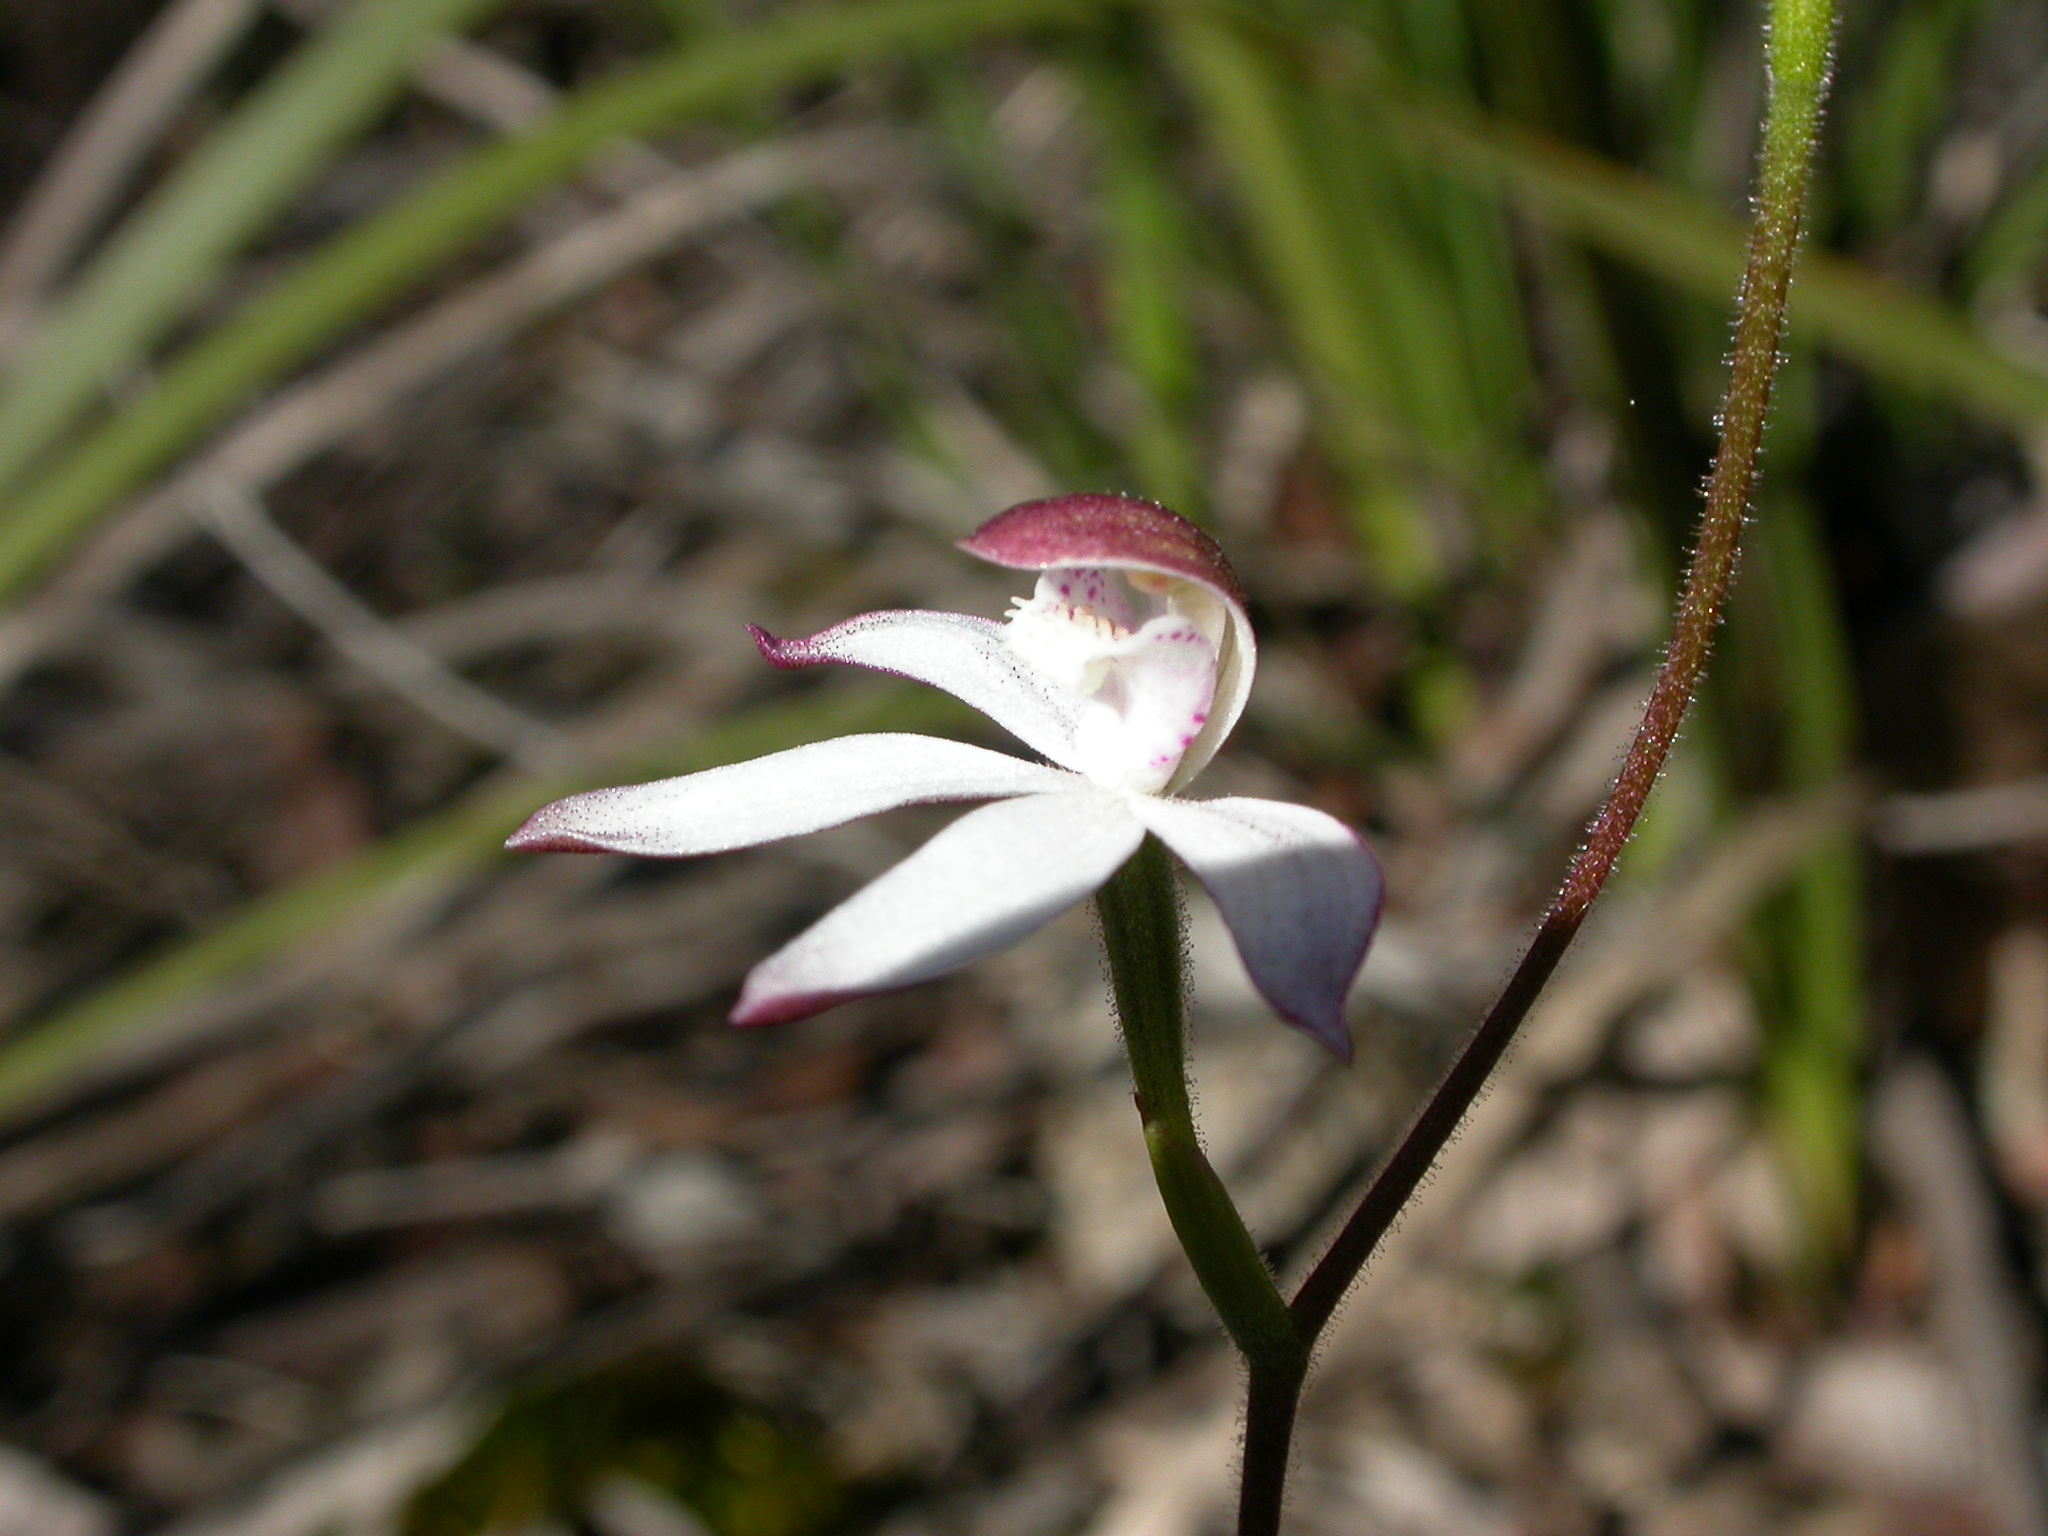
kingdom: Plantae
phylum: Tracheophyta
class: Liliopsida
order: Asparagales
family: Orchidaceae
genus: Caladenia
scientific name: Caladenia moschata
